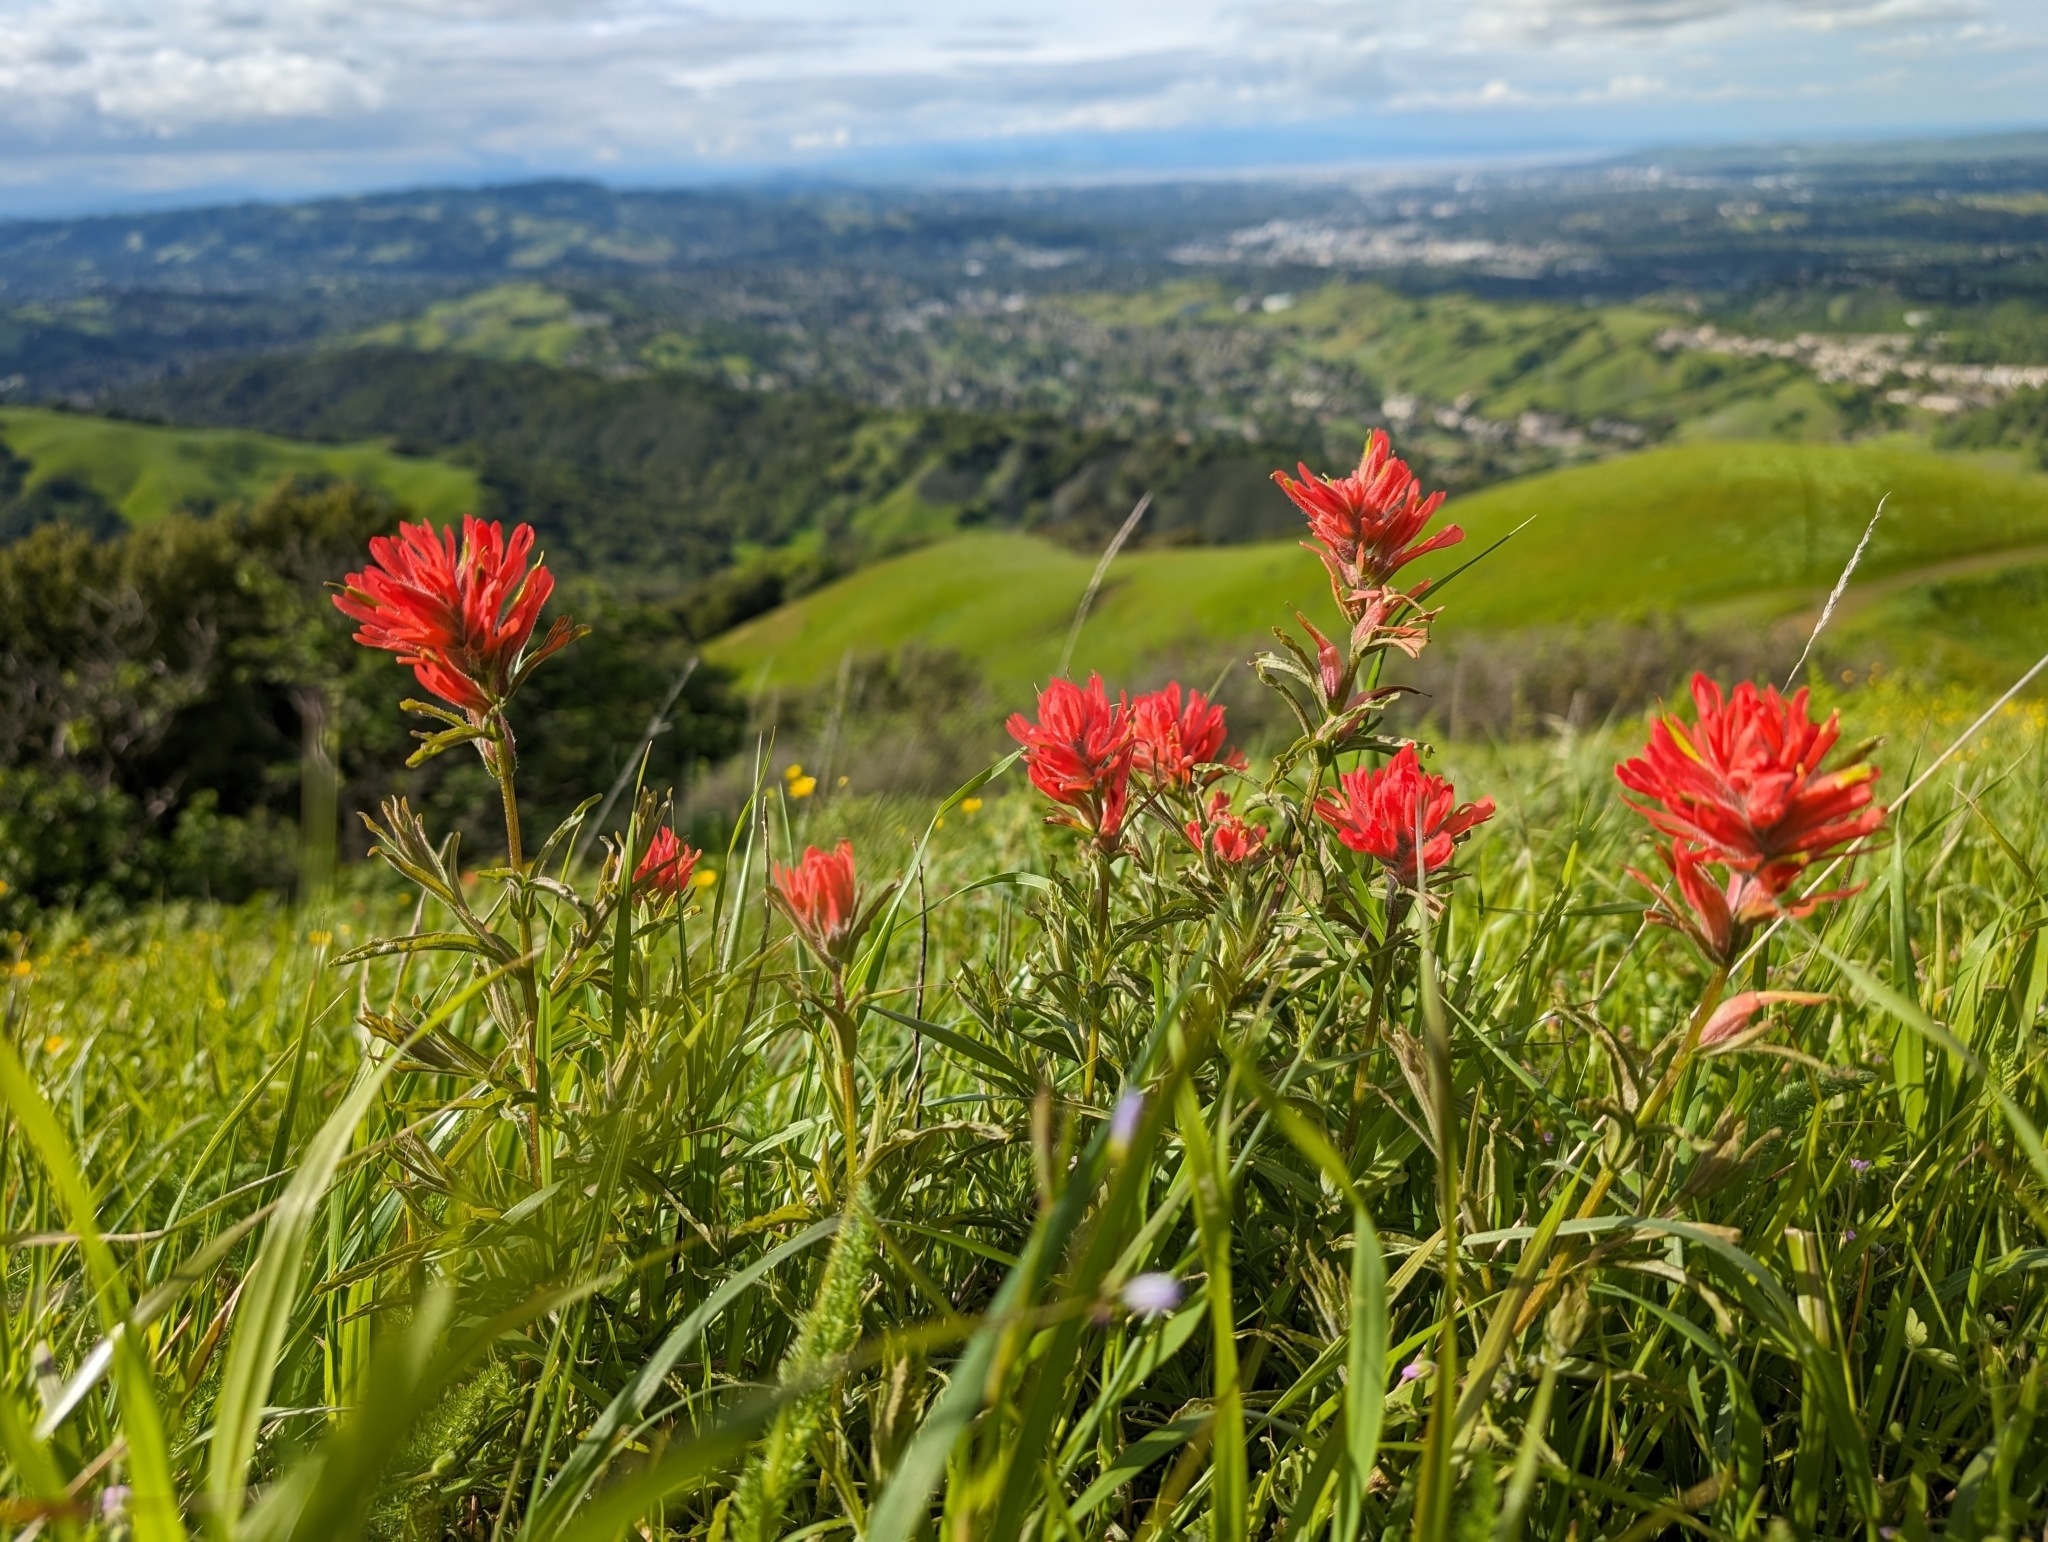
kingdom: Plantae
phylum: Tracheophyta
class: Magnoliopsida
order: Lamiales
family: Orobanchaceae
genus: Castilleja
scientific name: Castilleja affinis
